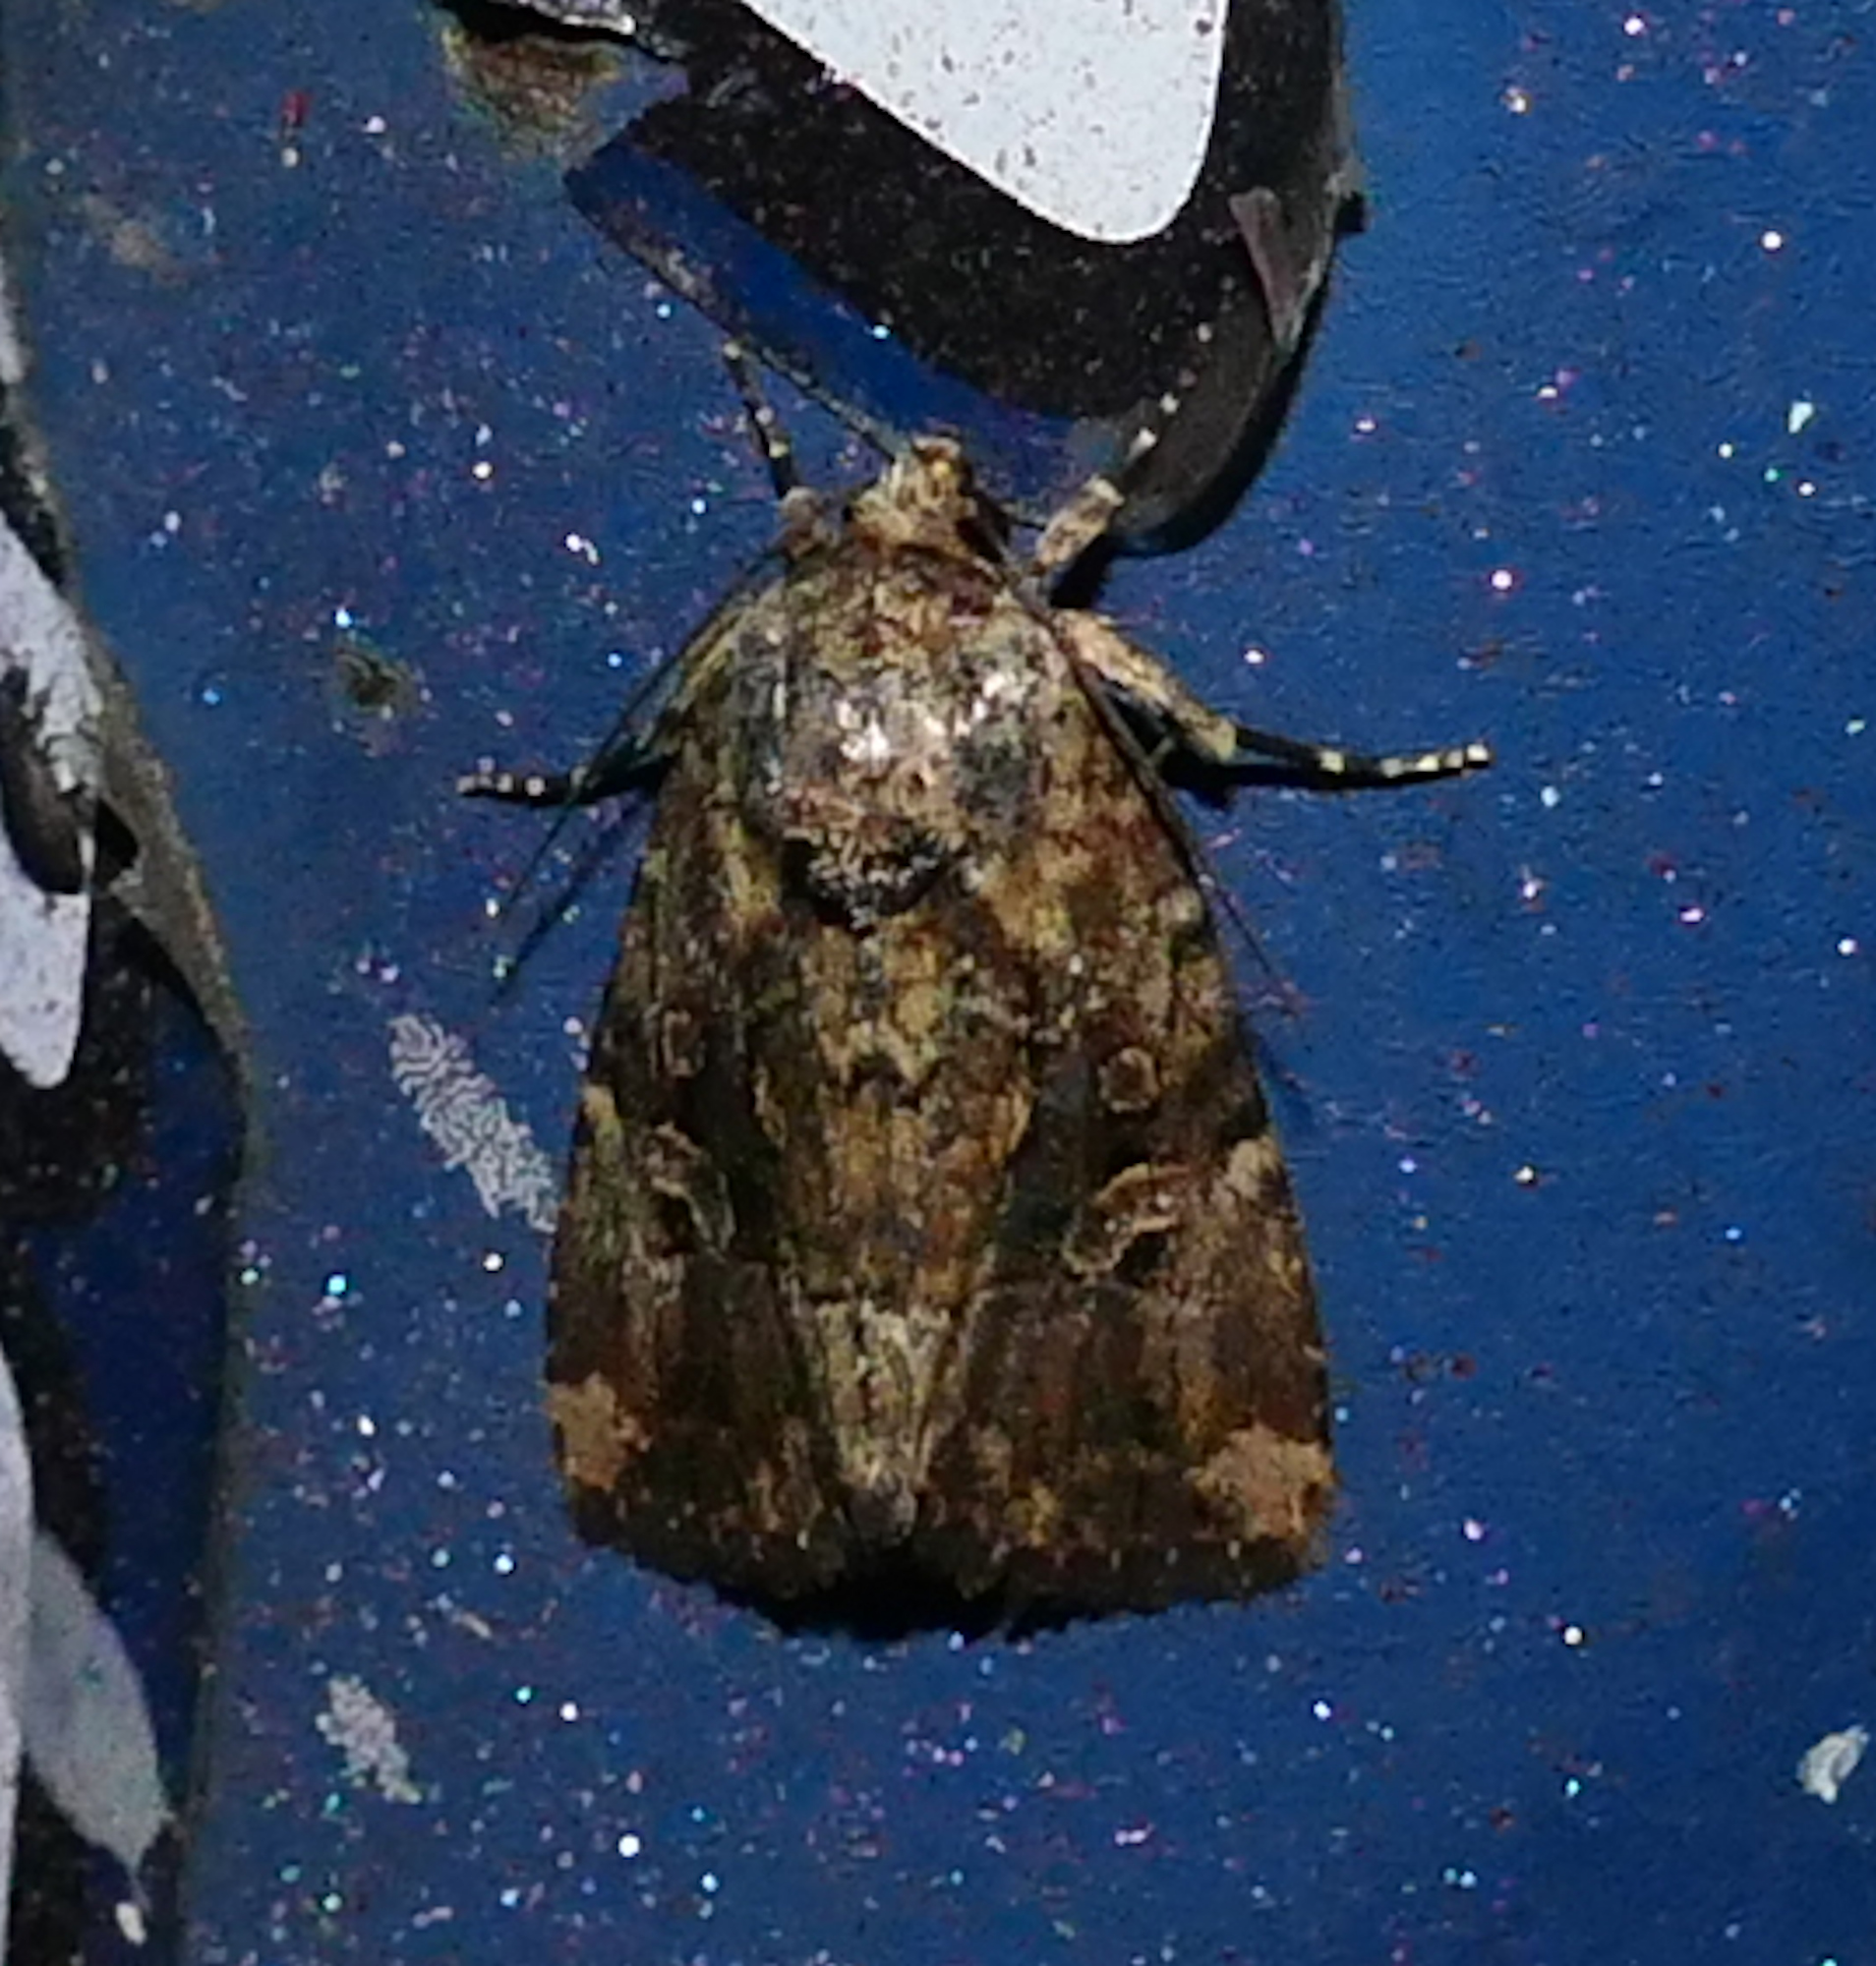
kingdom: Animalia
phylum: Arthropoda
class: Insecta
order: Lepidoptera
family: Noctuidae
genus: Elaphria
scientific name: Elaphria chalcedonia
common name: Chalcedony midget
